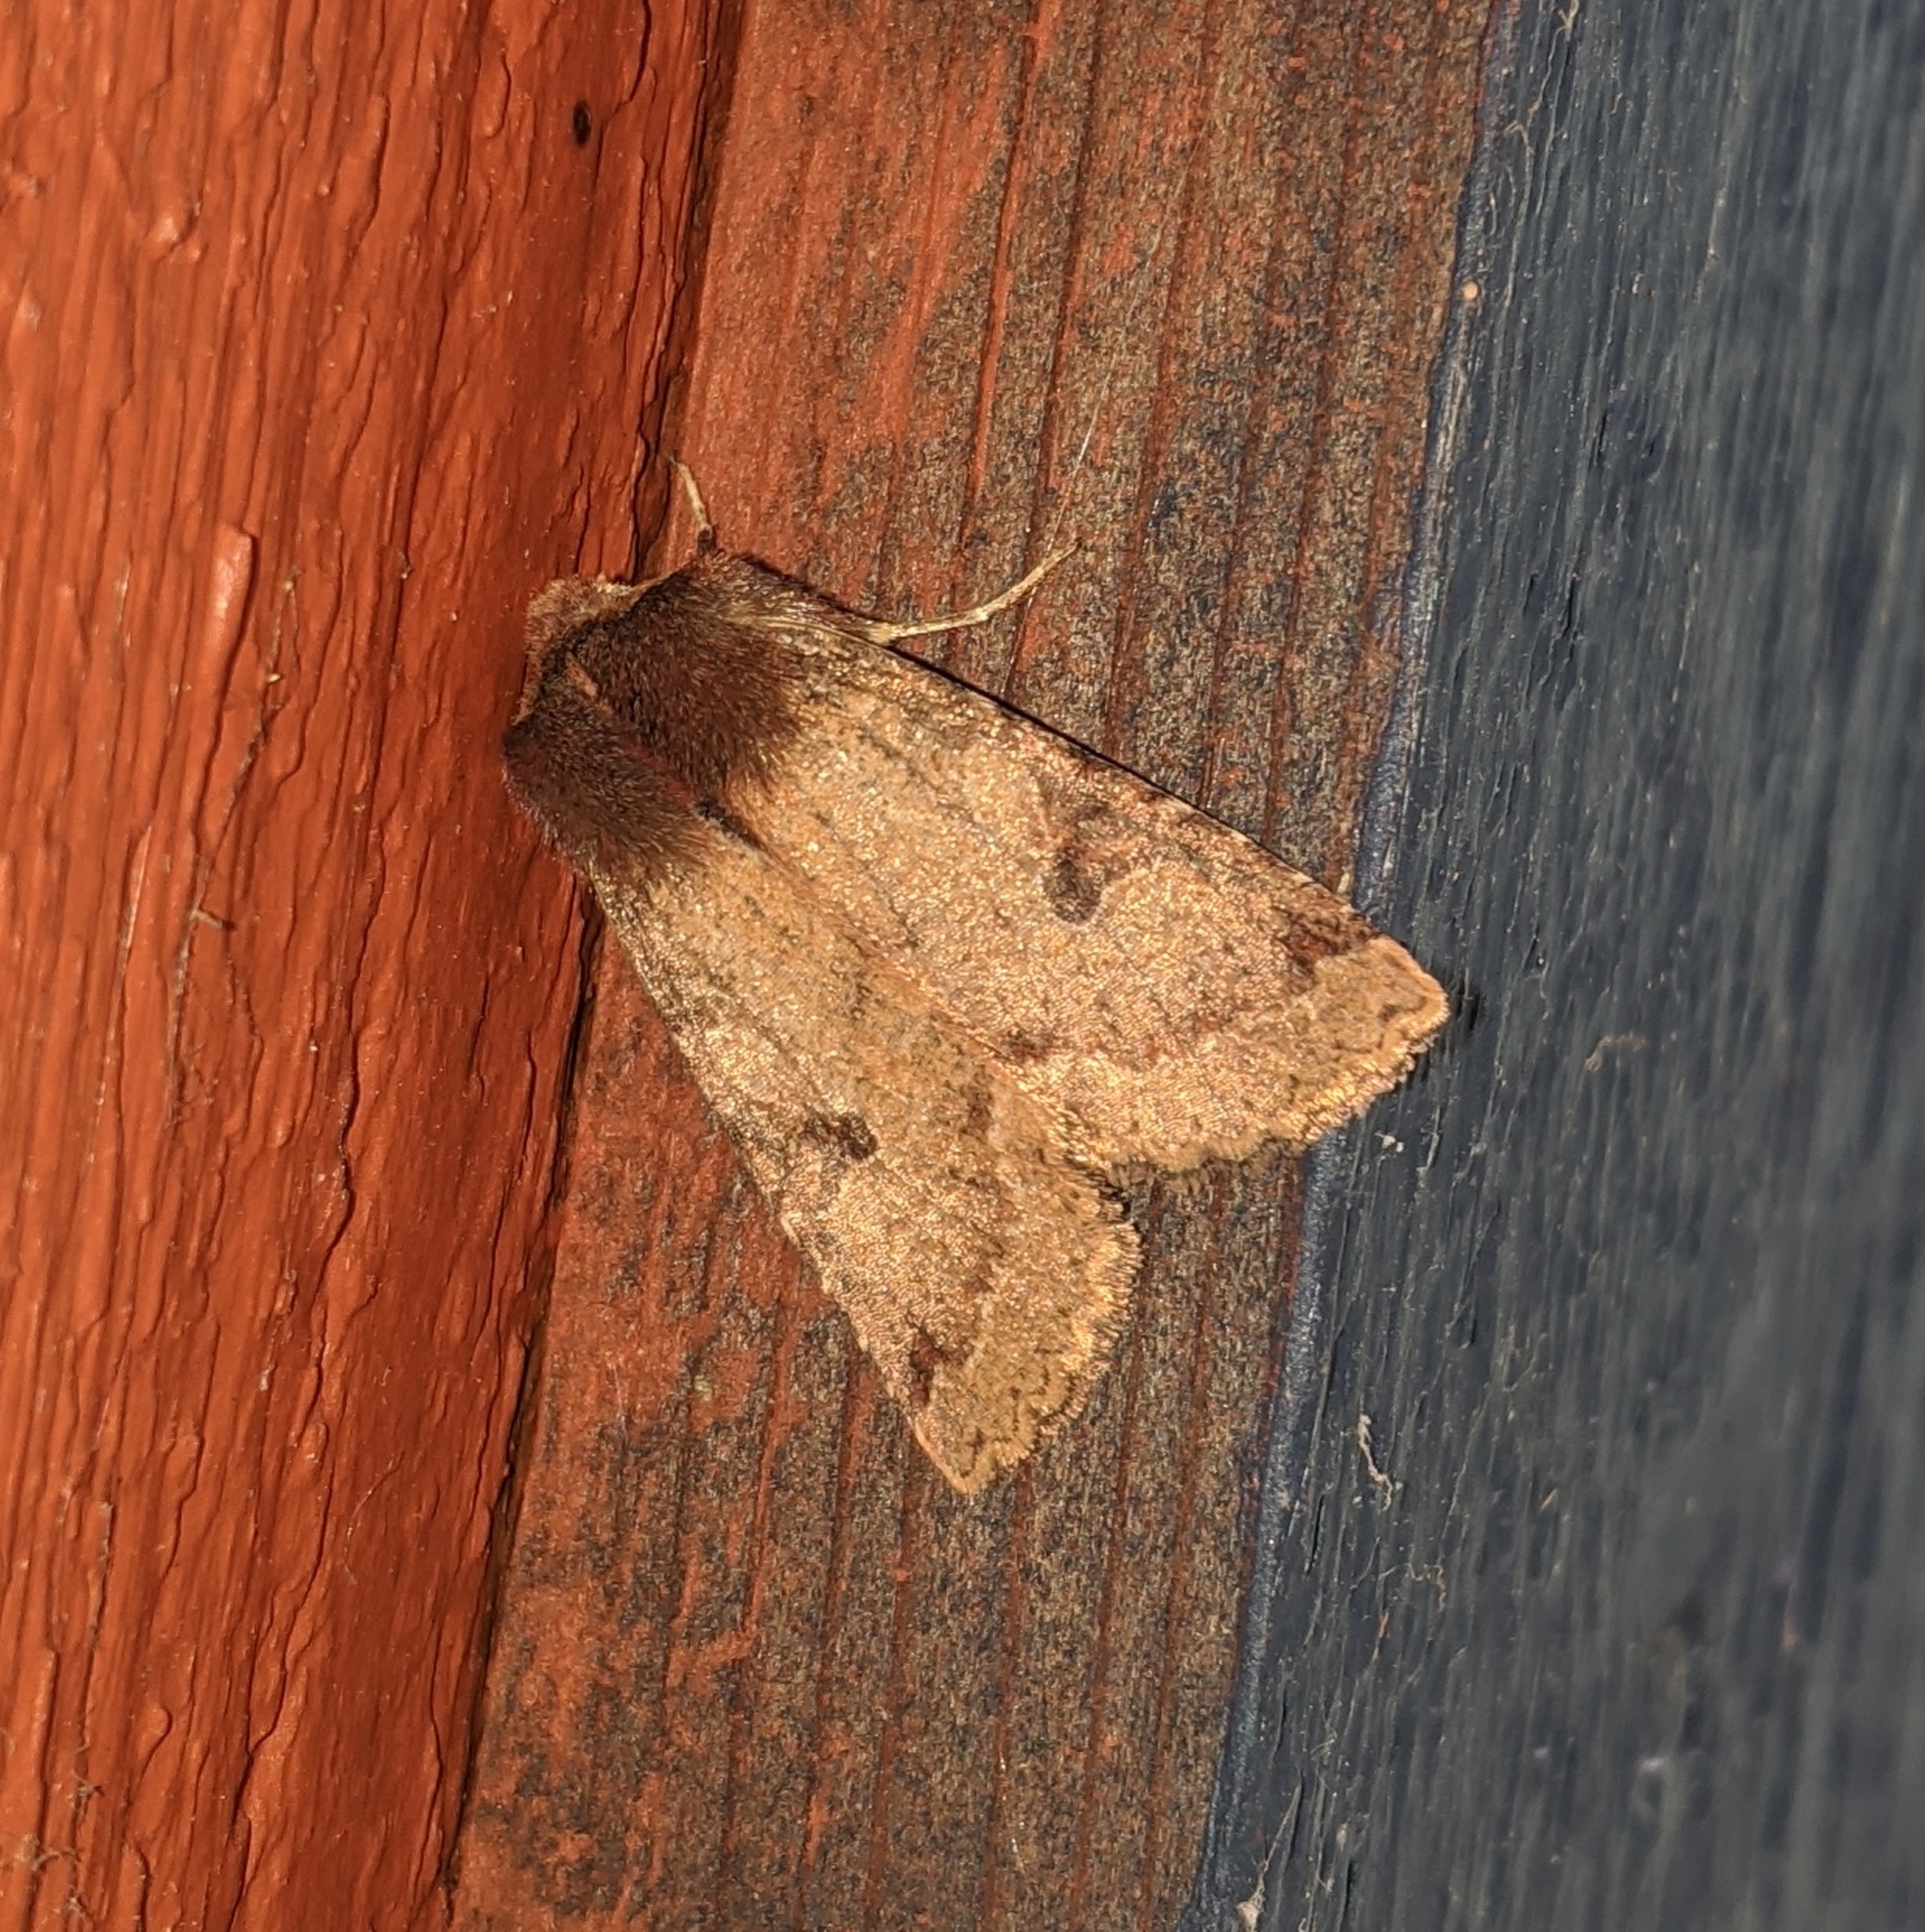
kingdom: Animalia
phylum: Arthropoda
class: Insecta
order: Lepidoptera
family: Noctuidae
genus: Orthosia
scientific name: Orthosia praeses
